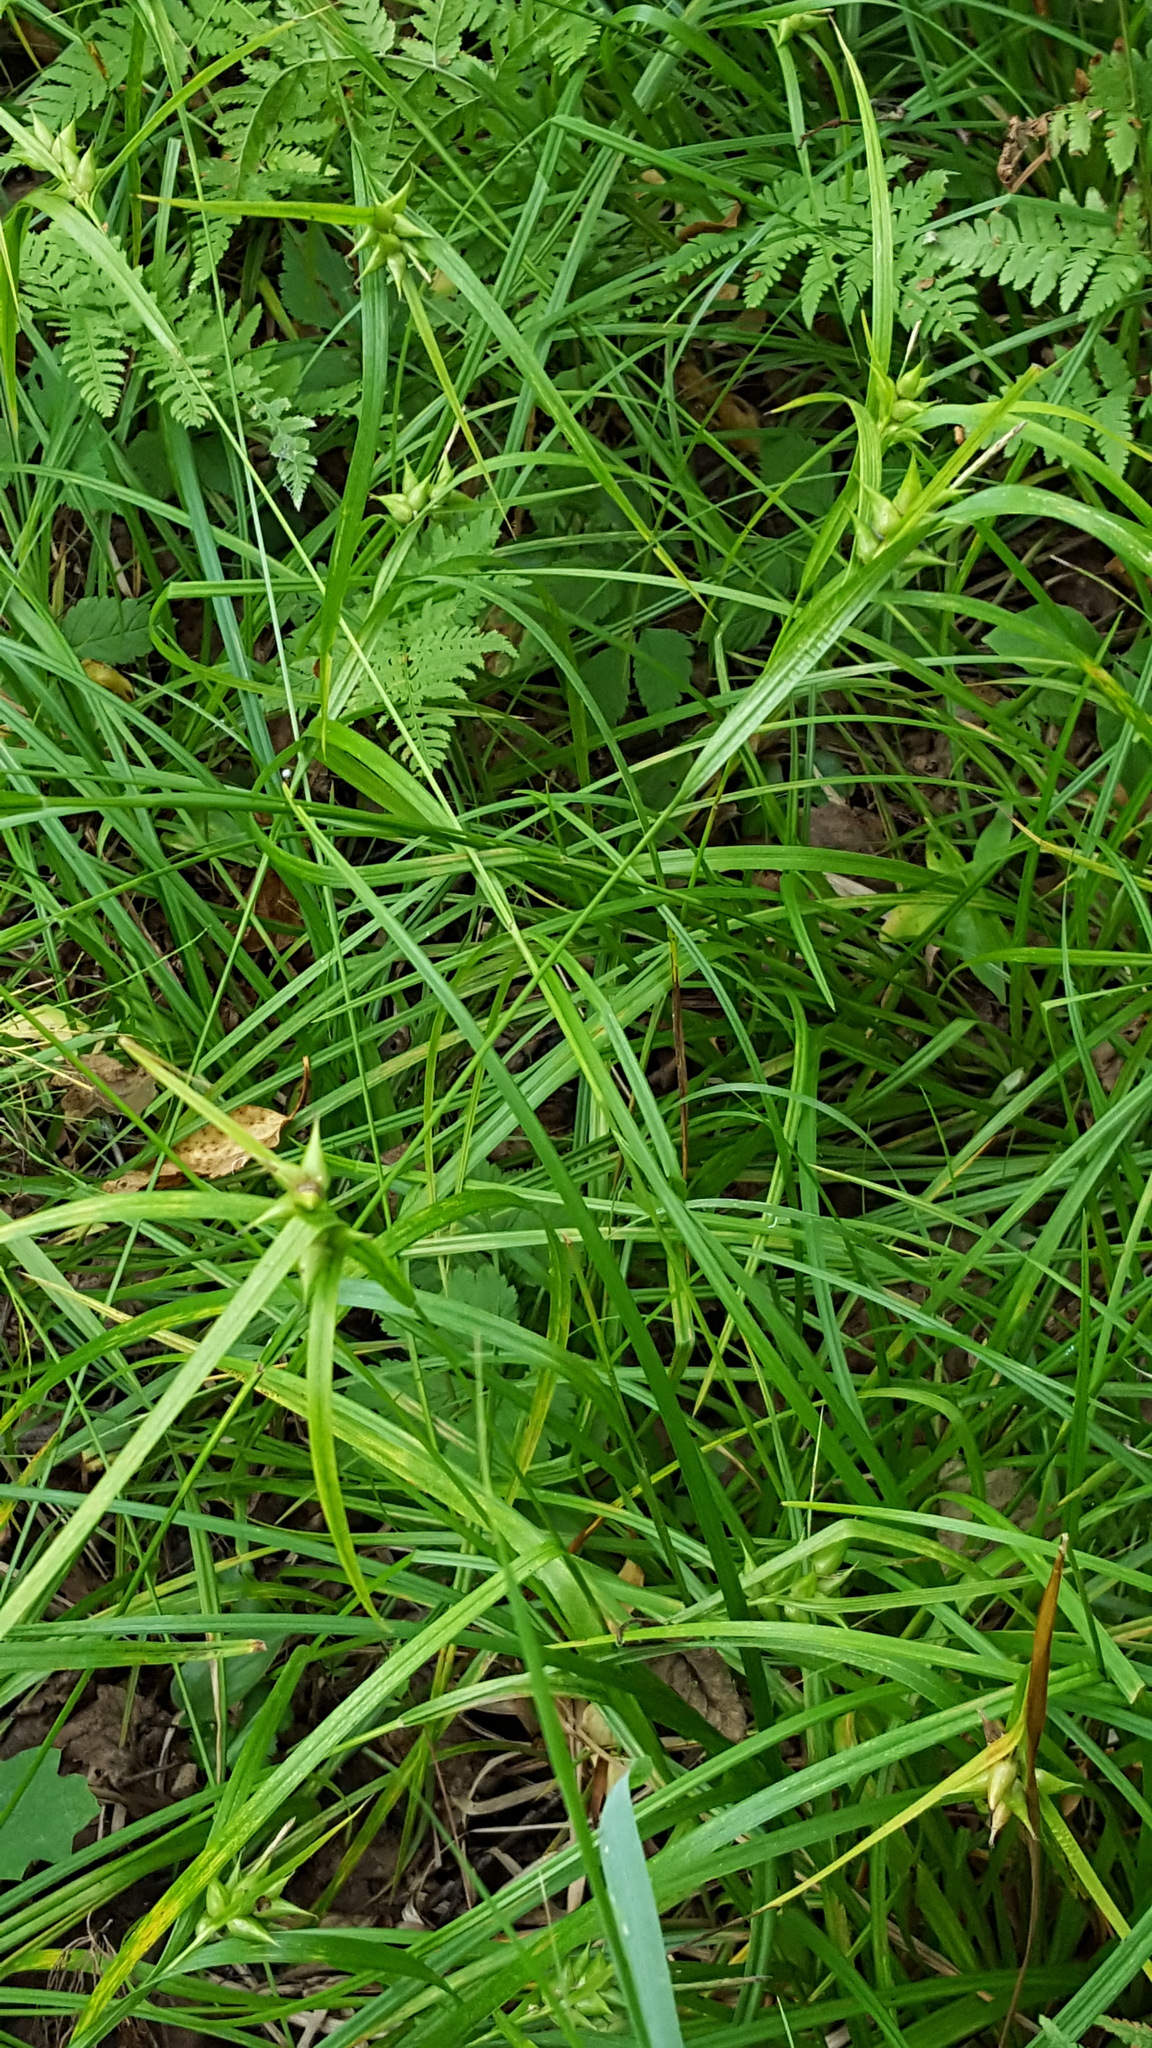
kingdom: Plantae
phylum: Tracheophyta
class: Liliopsida
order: Poales
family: Cyperaceae
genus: Carex
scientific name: Carex intumescens
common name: Greater bladder sedge
